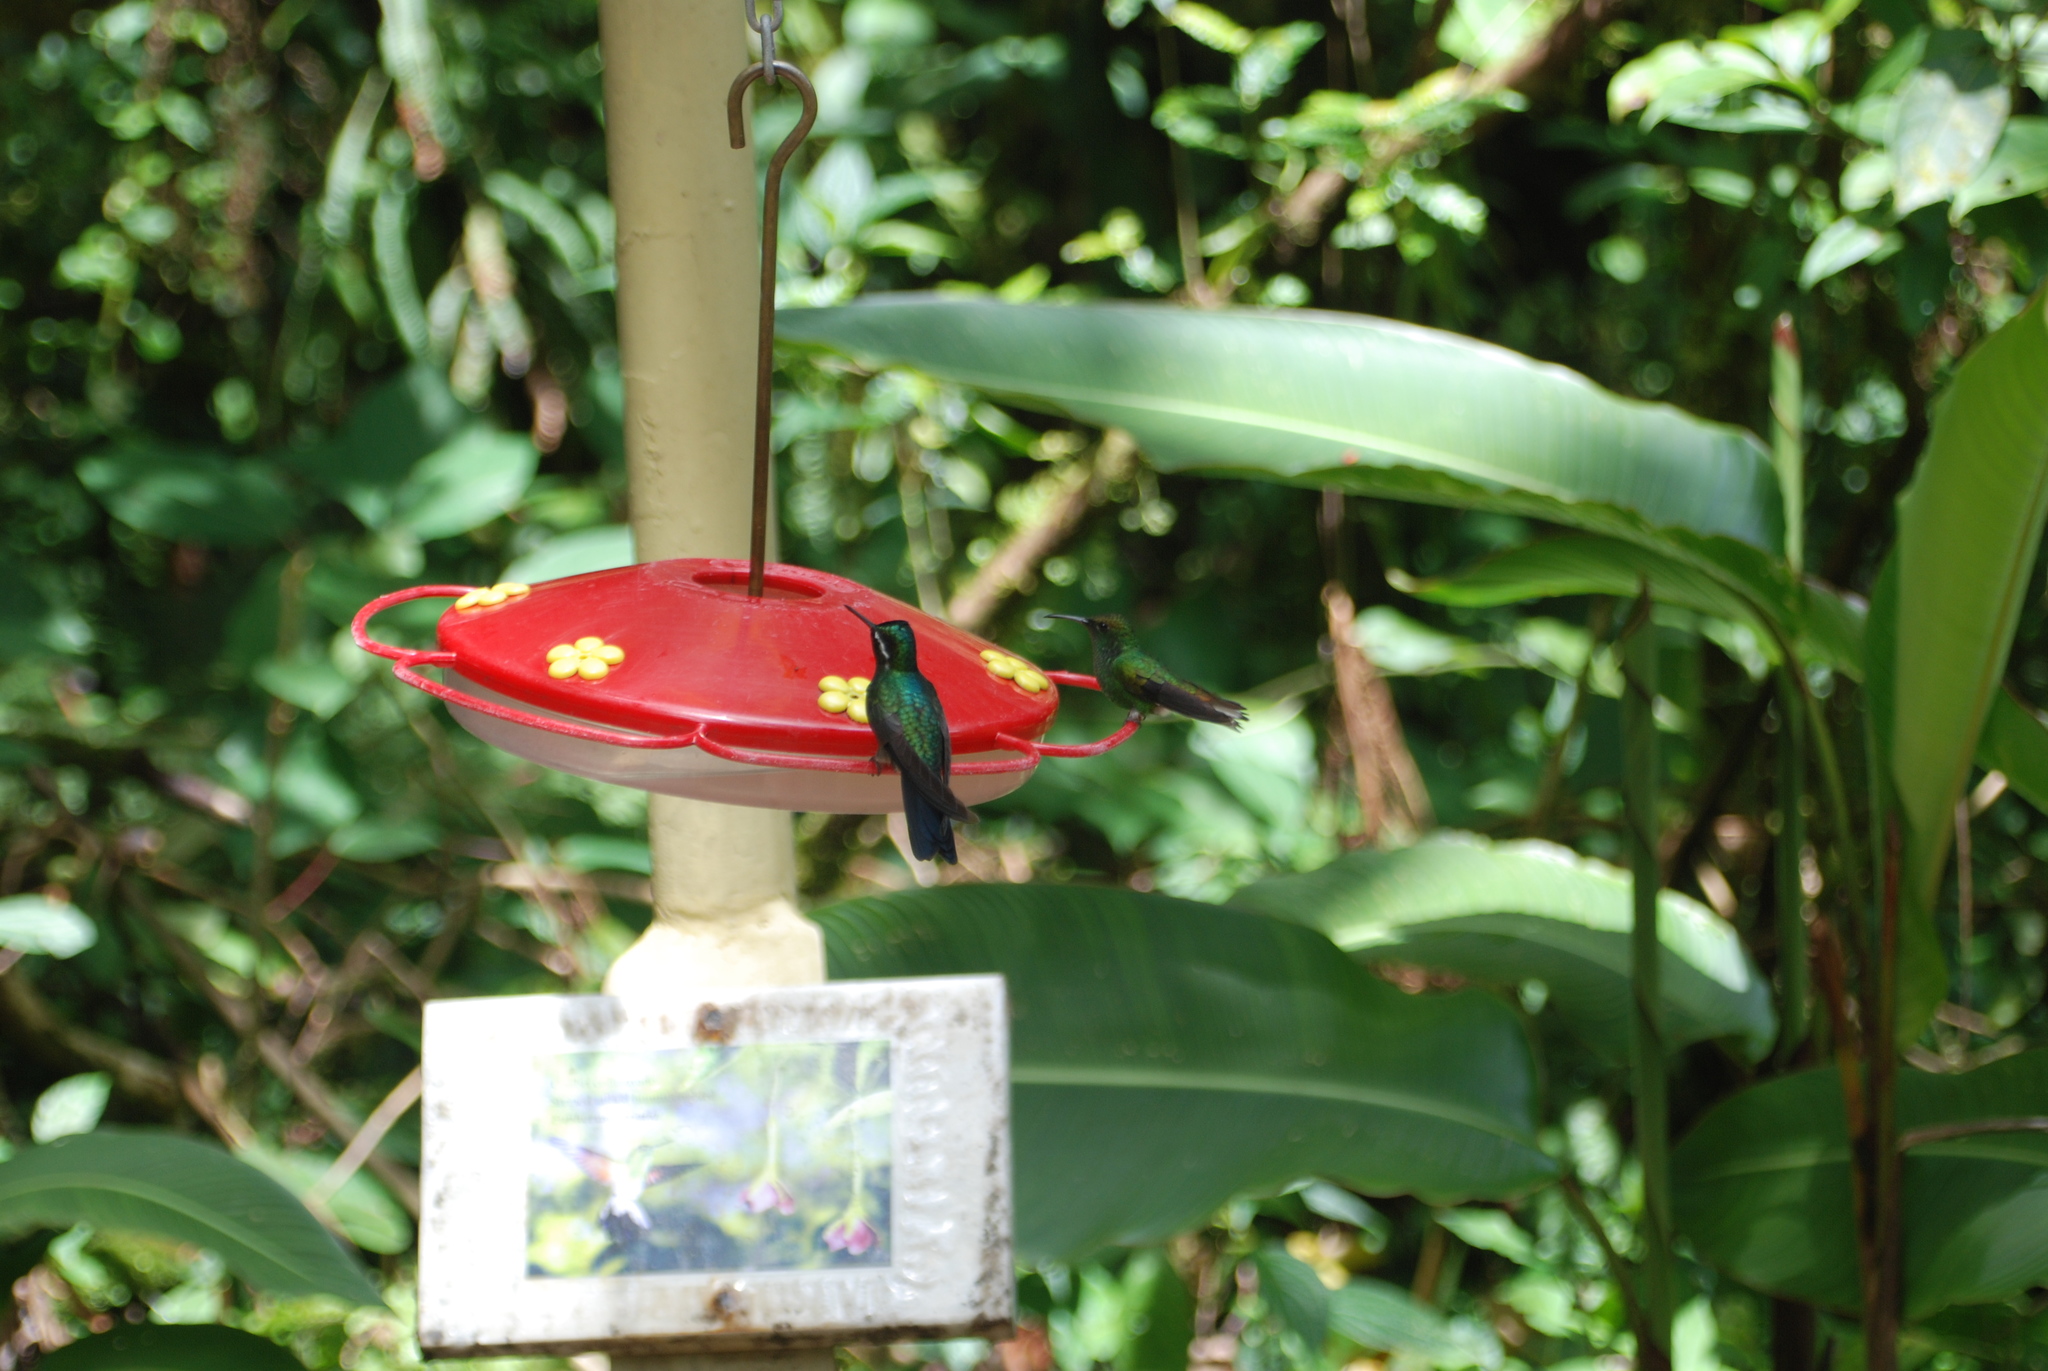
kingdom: Animalia
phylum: Chordata
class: Aves
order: Apodiformes
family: Trochilidae
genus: Microchera
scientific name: Microchera cupreiceps
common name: Coppery-headed emerald
